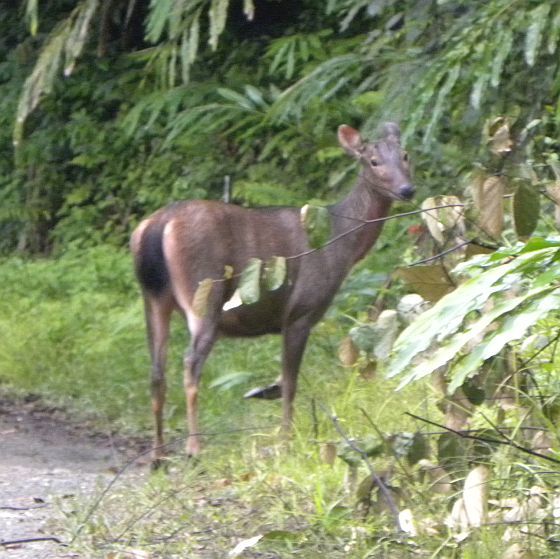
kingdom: Animalia
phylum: Chordata
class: Mammalia
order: Artiodactyla
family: Cervidae
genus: Rusa
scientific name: Rusa unicolor
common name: Sambar
